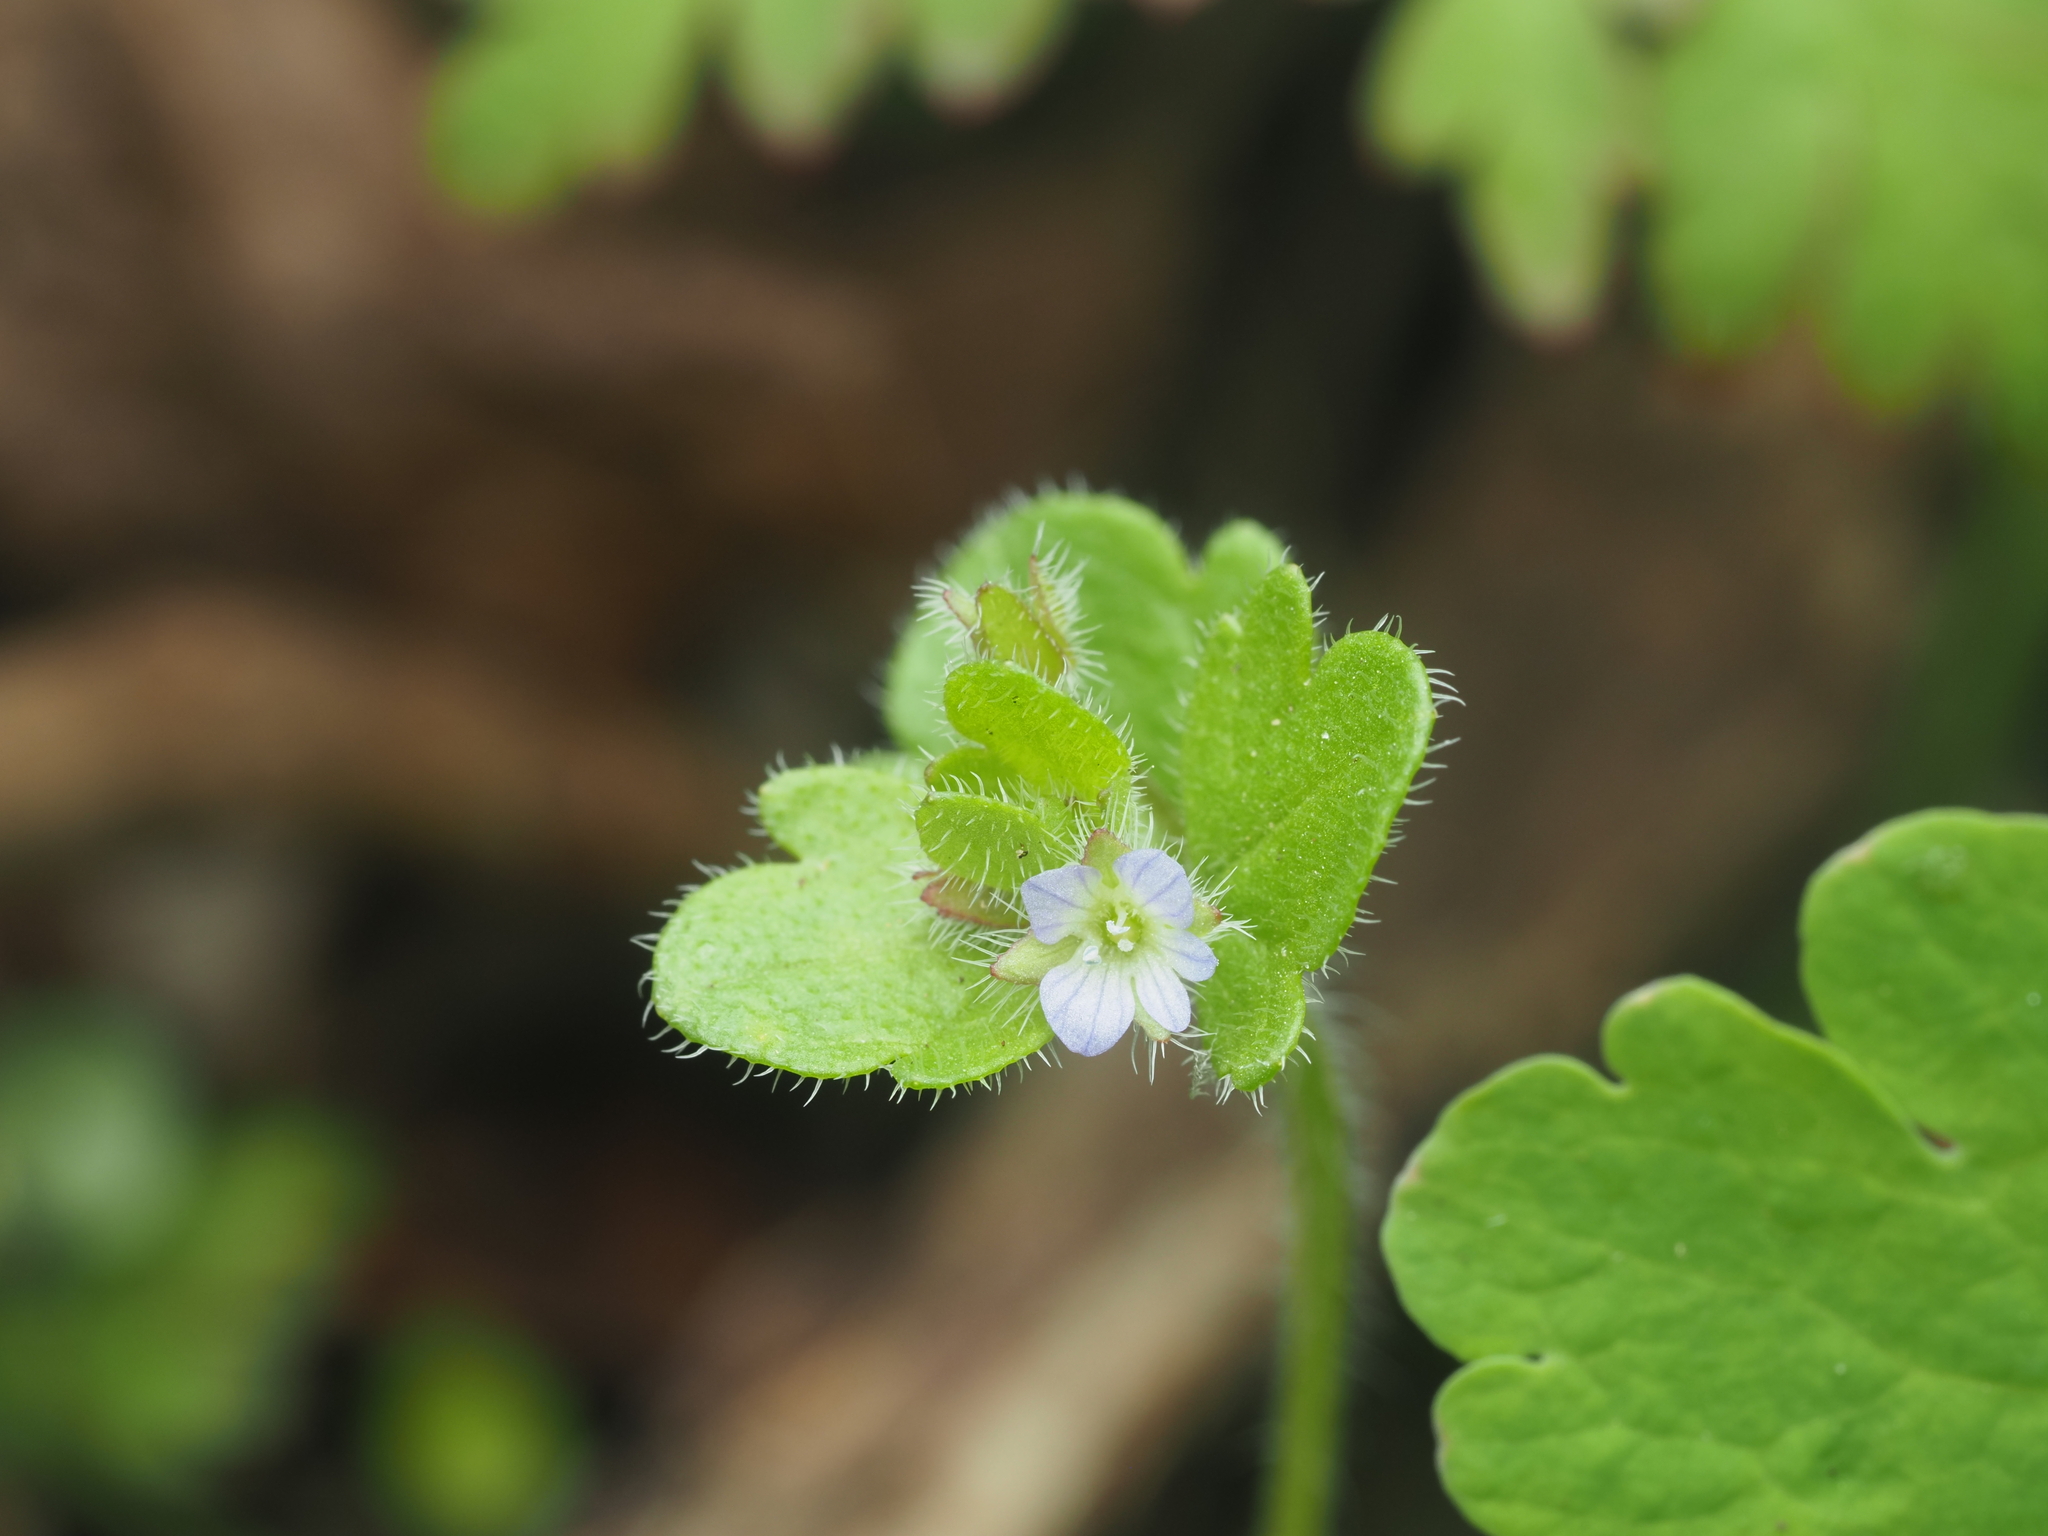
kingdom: Plantae
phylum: Tracheophyta
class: Magnoliopsida
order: Lamiales
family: Plantaginaceae
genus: Veronica
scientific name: Veronica sublobata
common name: False ivy-leaved speedwell
